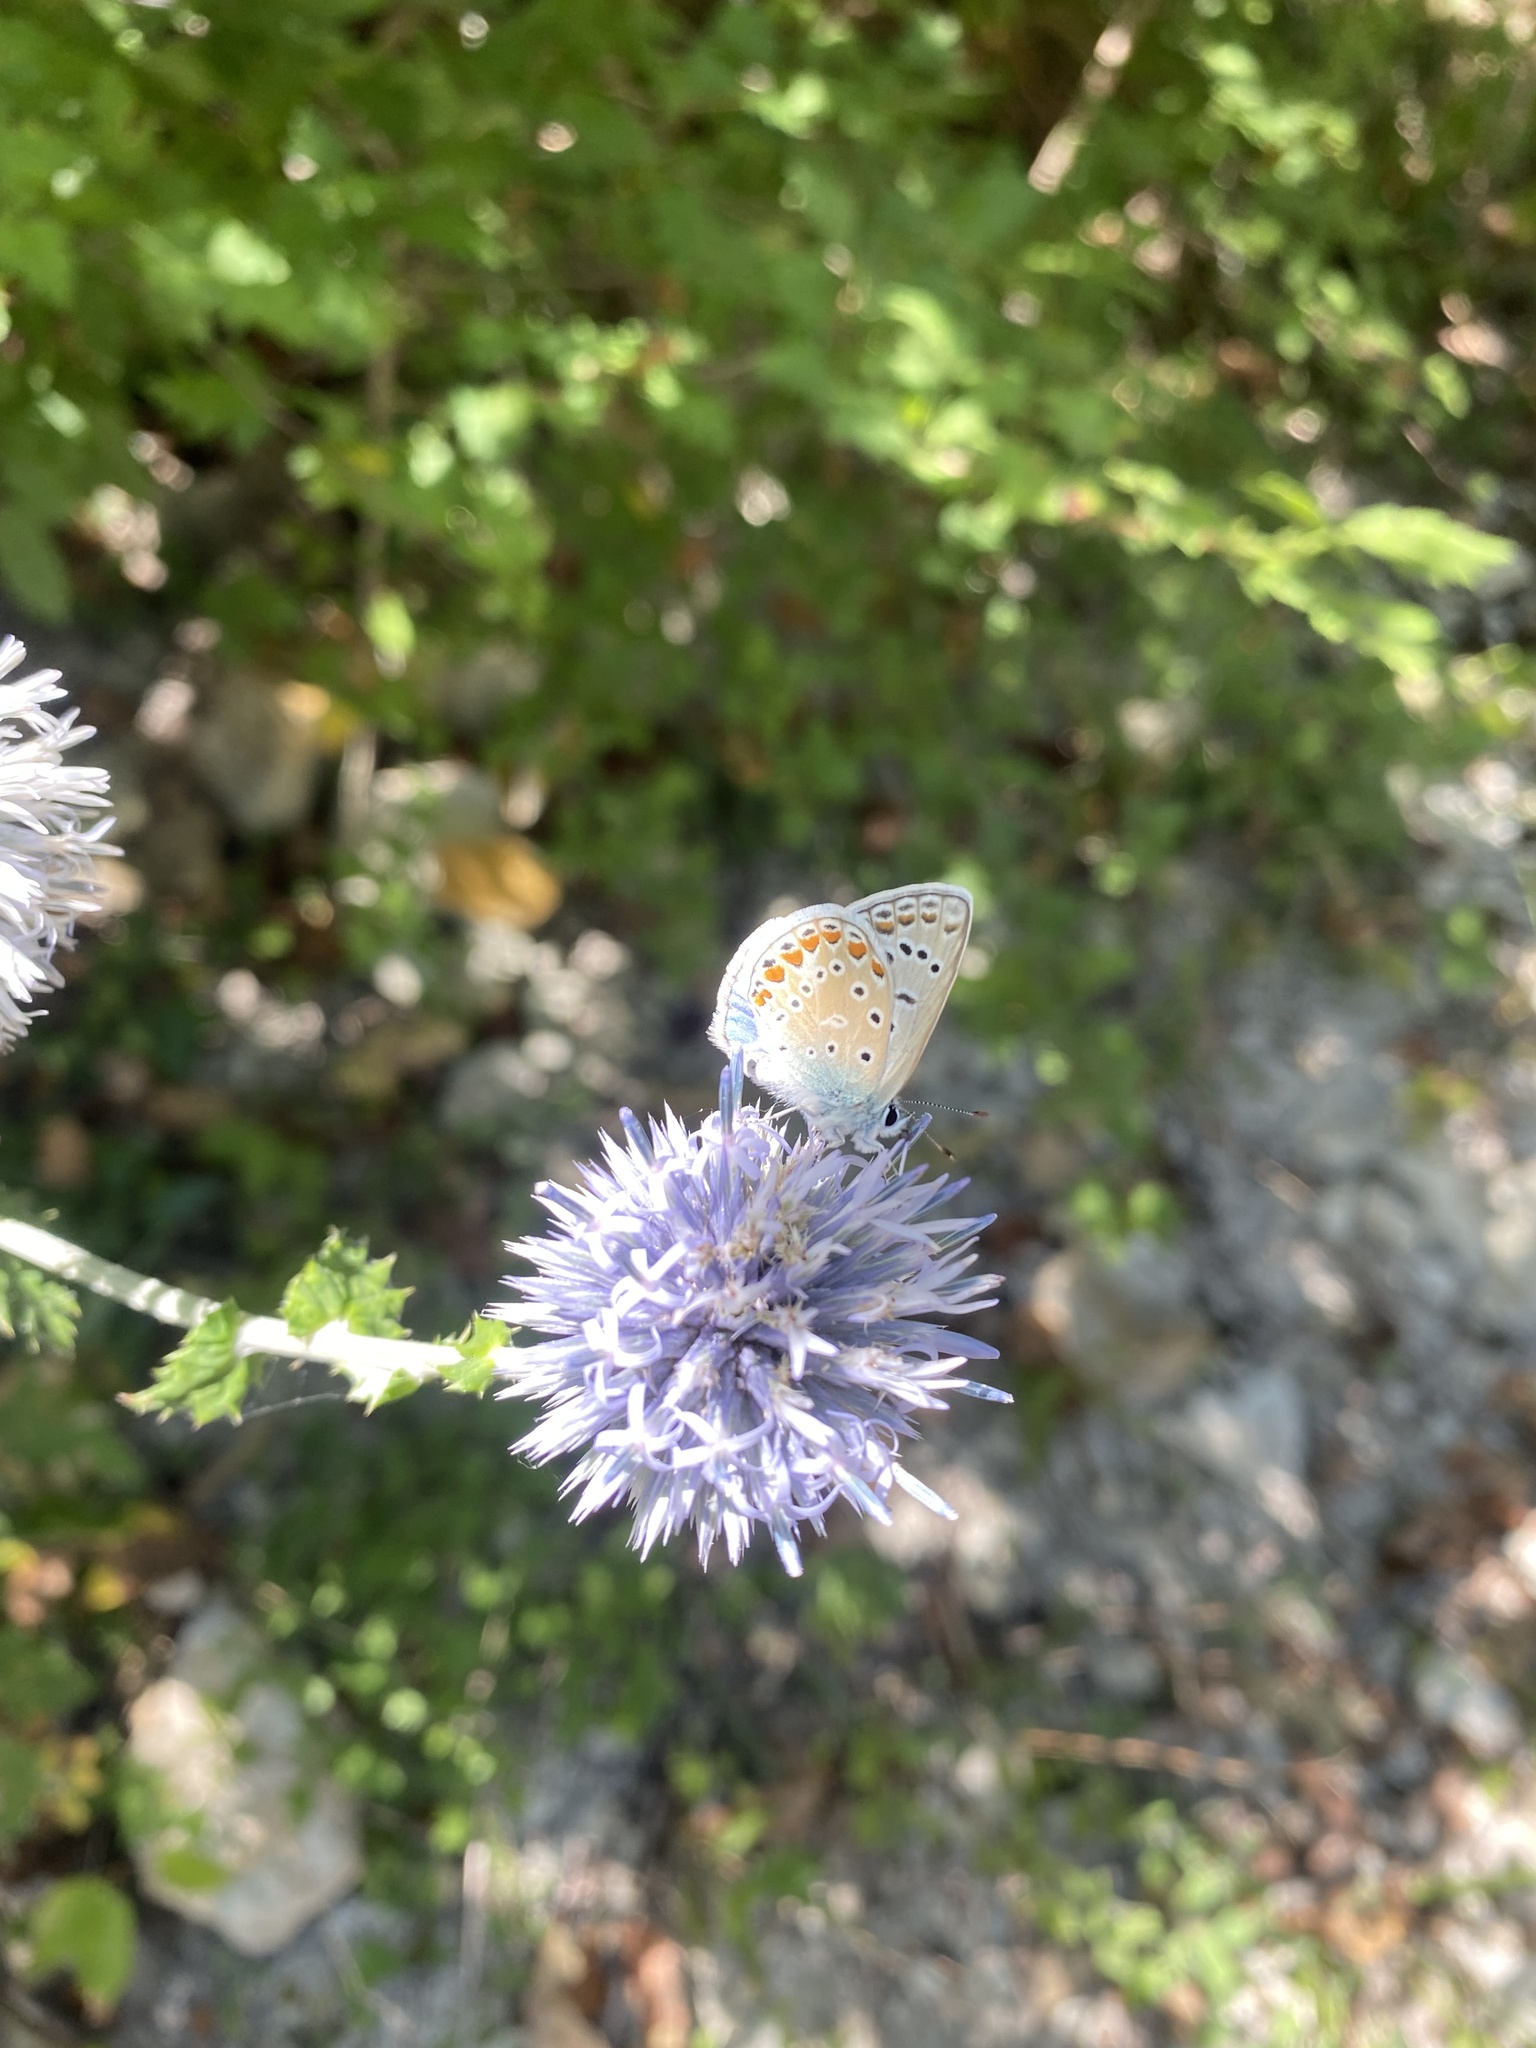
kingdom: Animalia
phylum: Arthropoda
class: Insecta
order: Lepidoptera
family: Lycaenidae
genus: Polyommatus
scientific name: Polyommatus icarus
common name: Common blue
